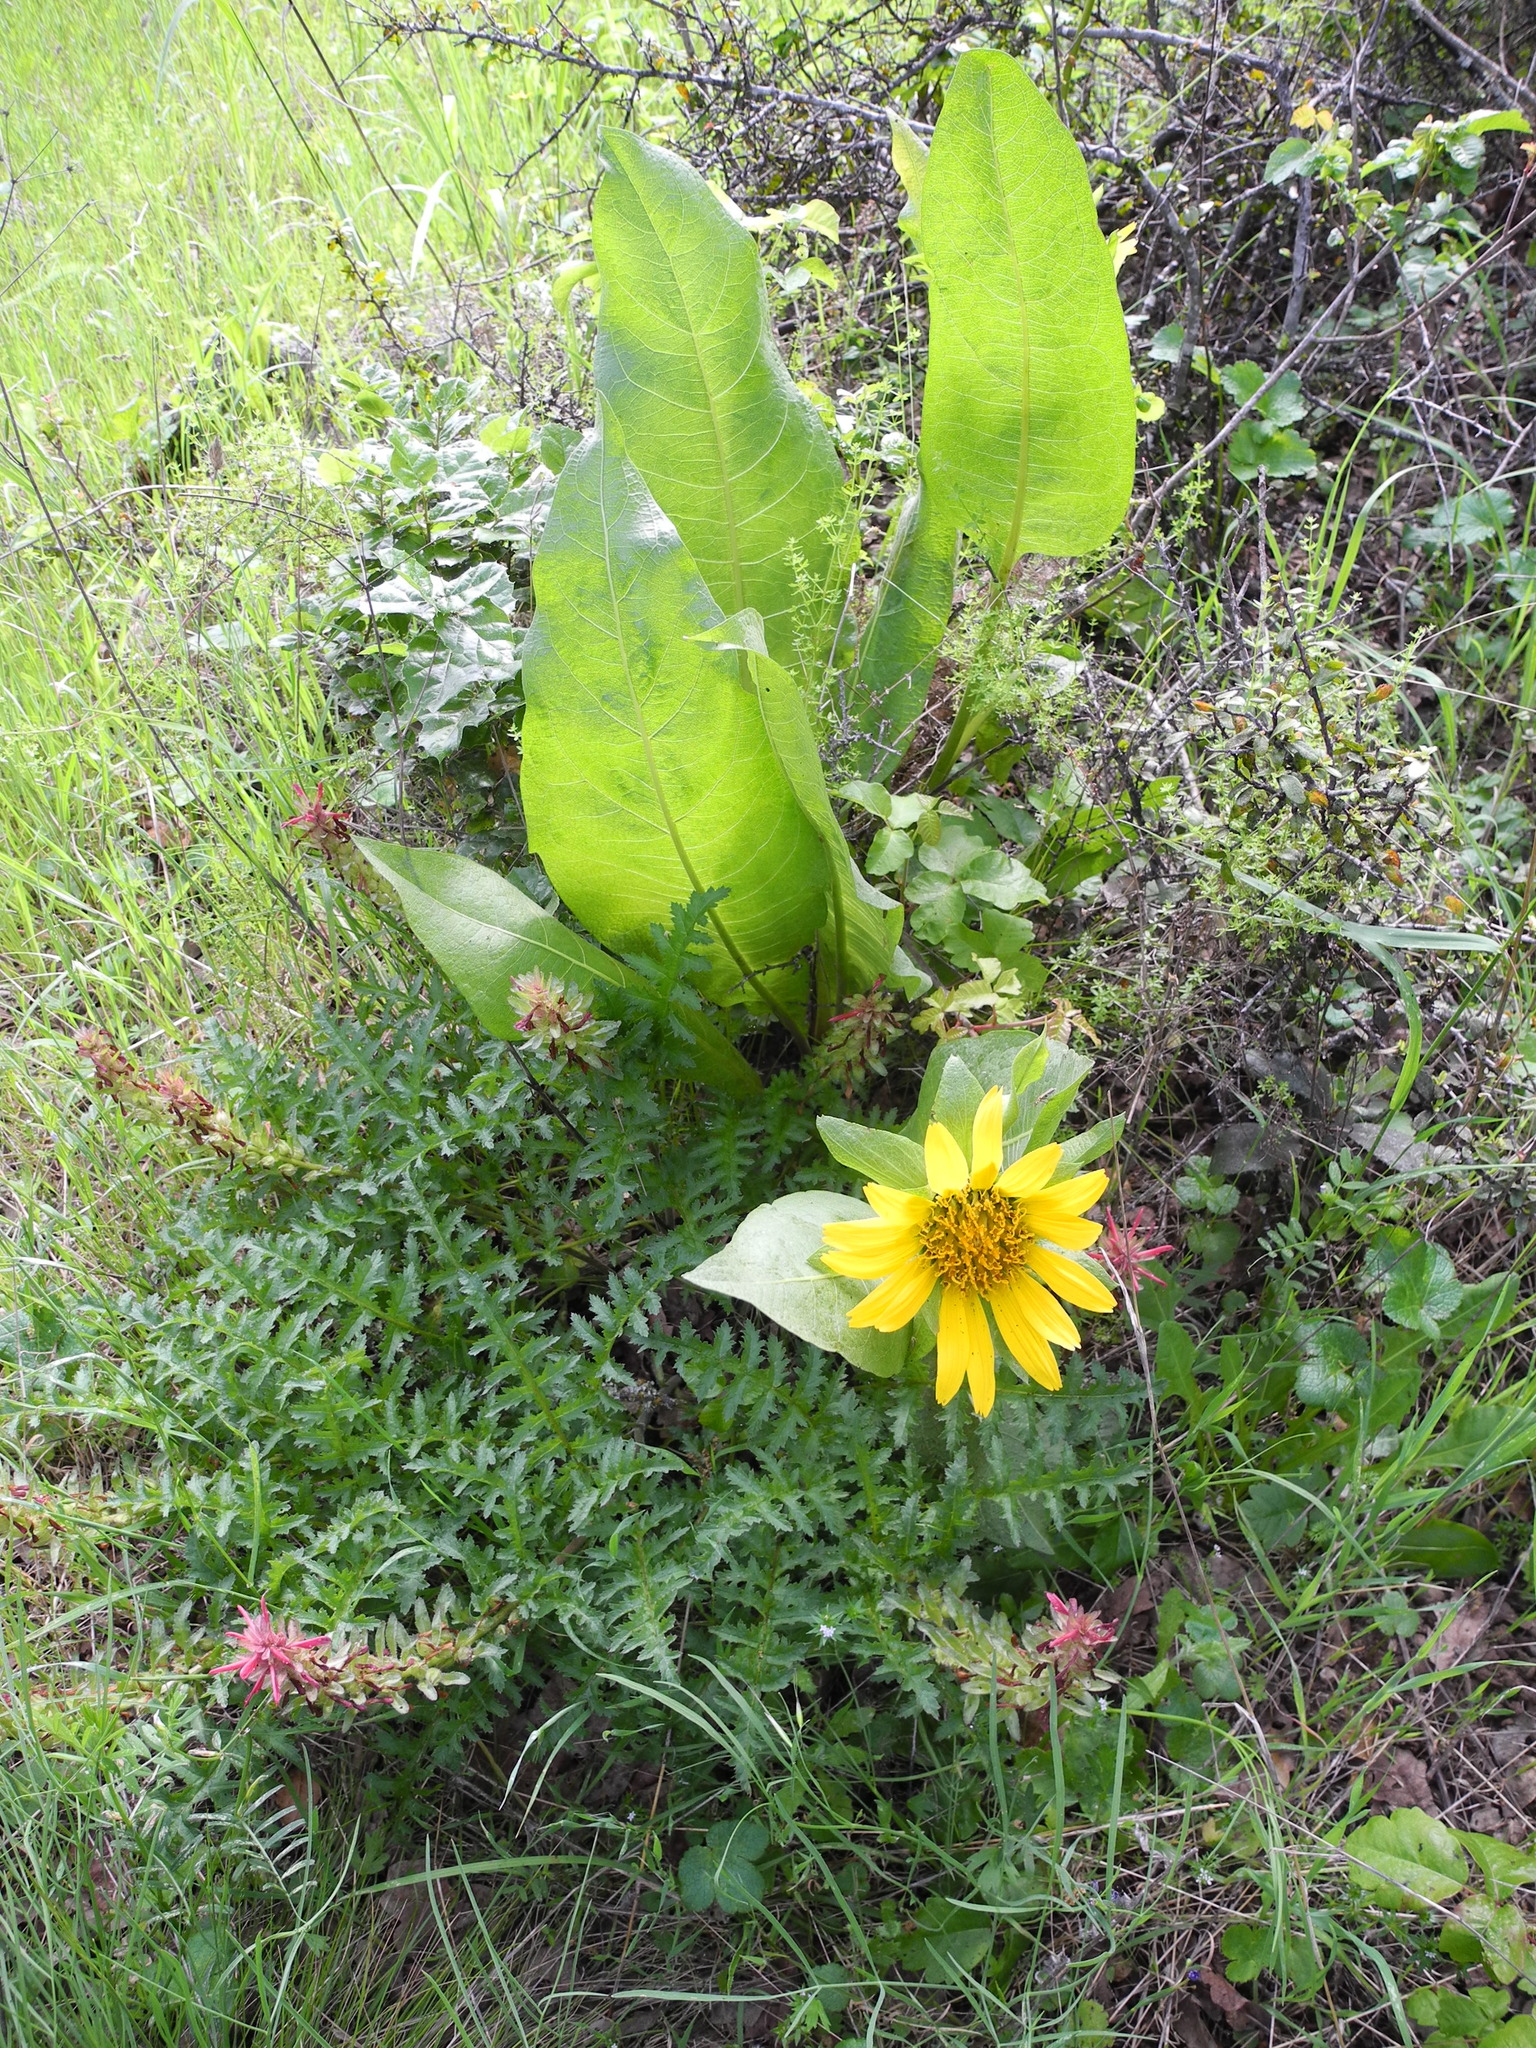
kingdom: Plantae
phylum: Tracheophyta
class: Magnoliopsida
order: Asterales
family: Asteraceae
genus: Wyethia
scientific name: Wyethia glabra
